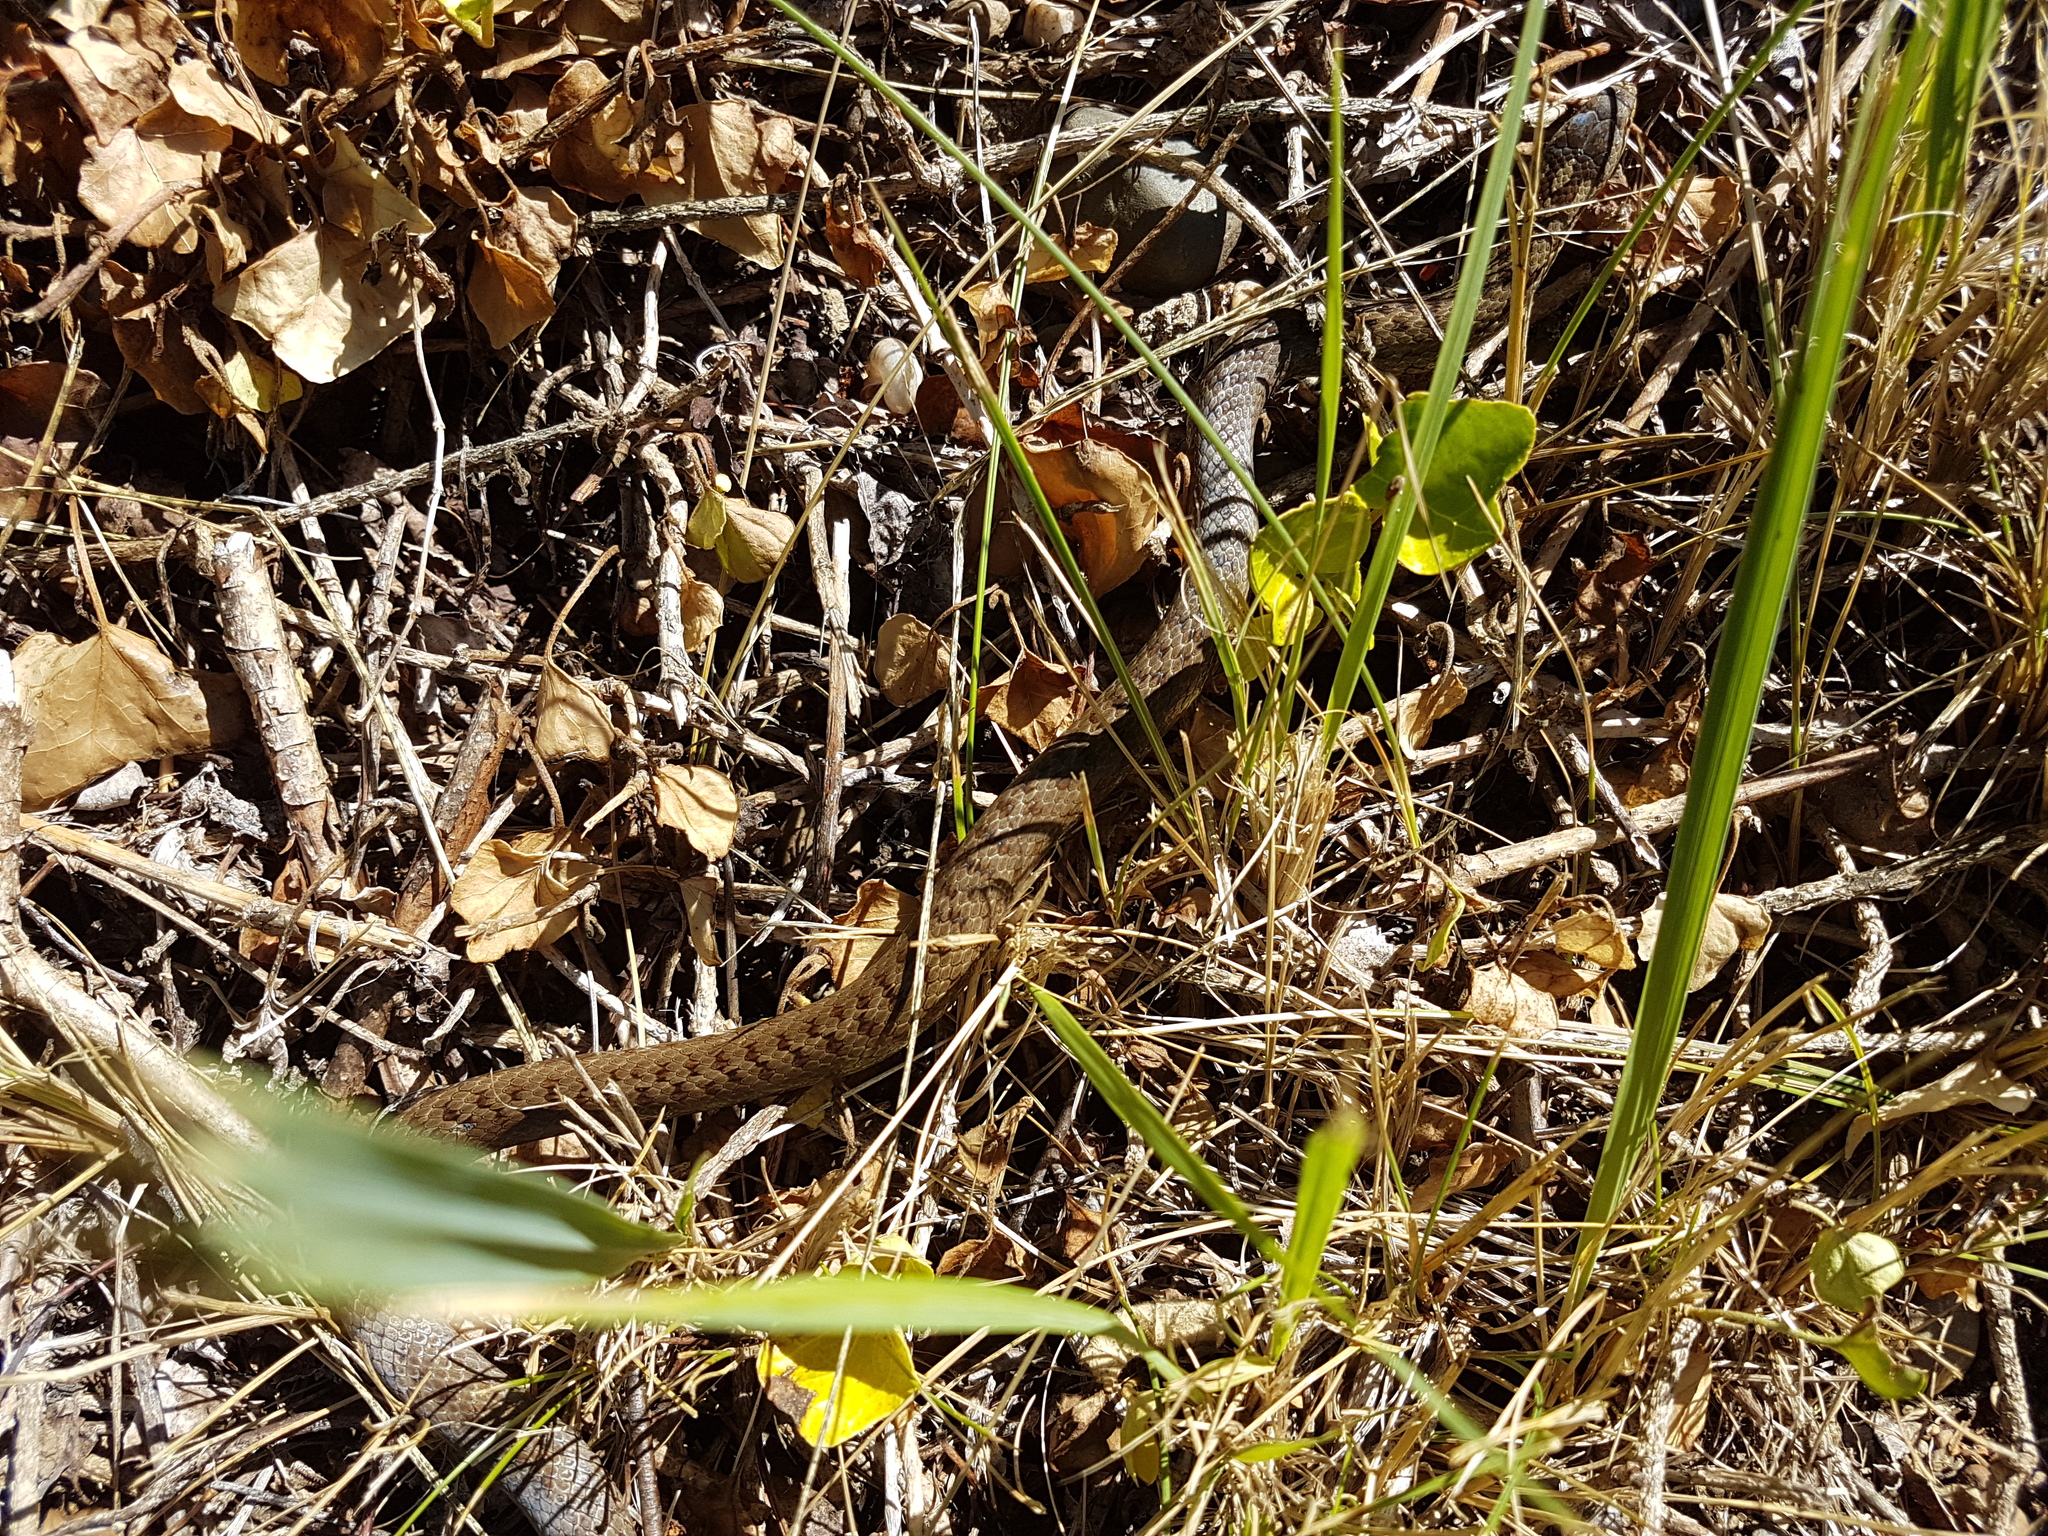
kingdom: Animalia
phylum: Chordata
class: Squamata
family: Colubridae
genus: Coronella
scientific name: Coronella austriaca
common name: Smooth snake
